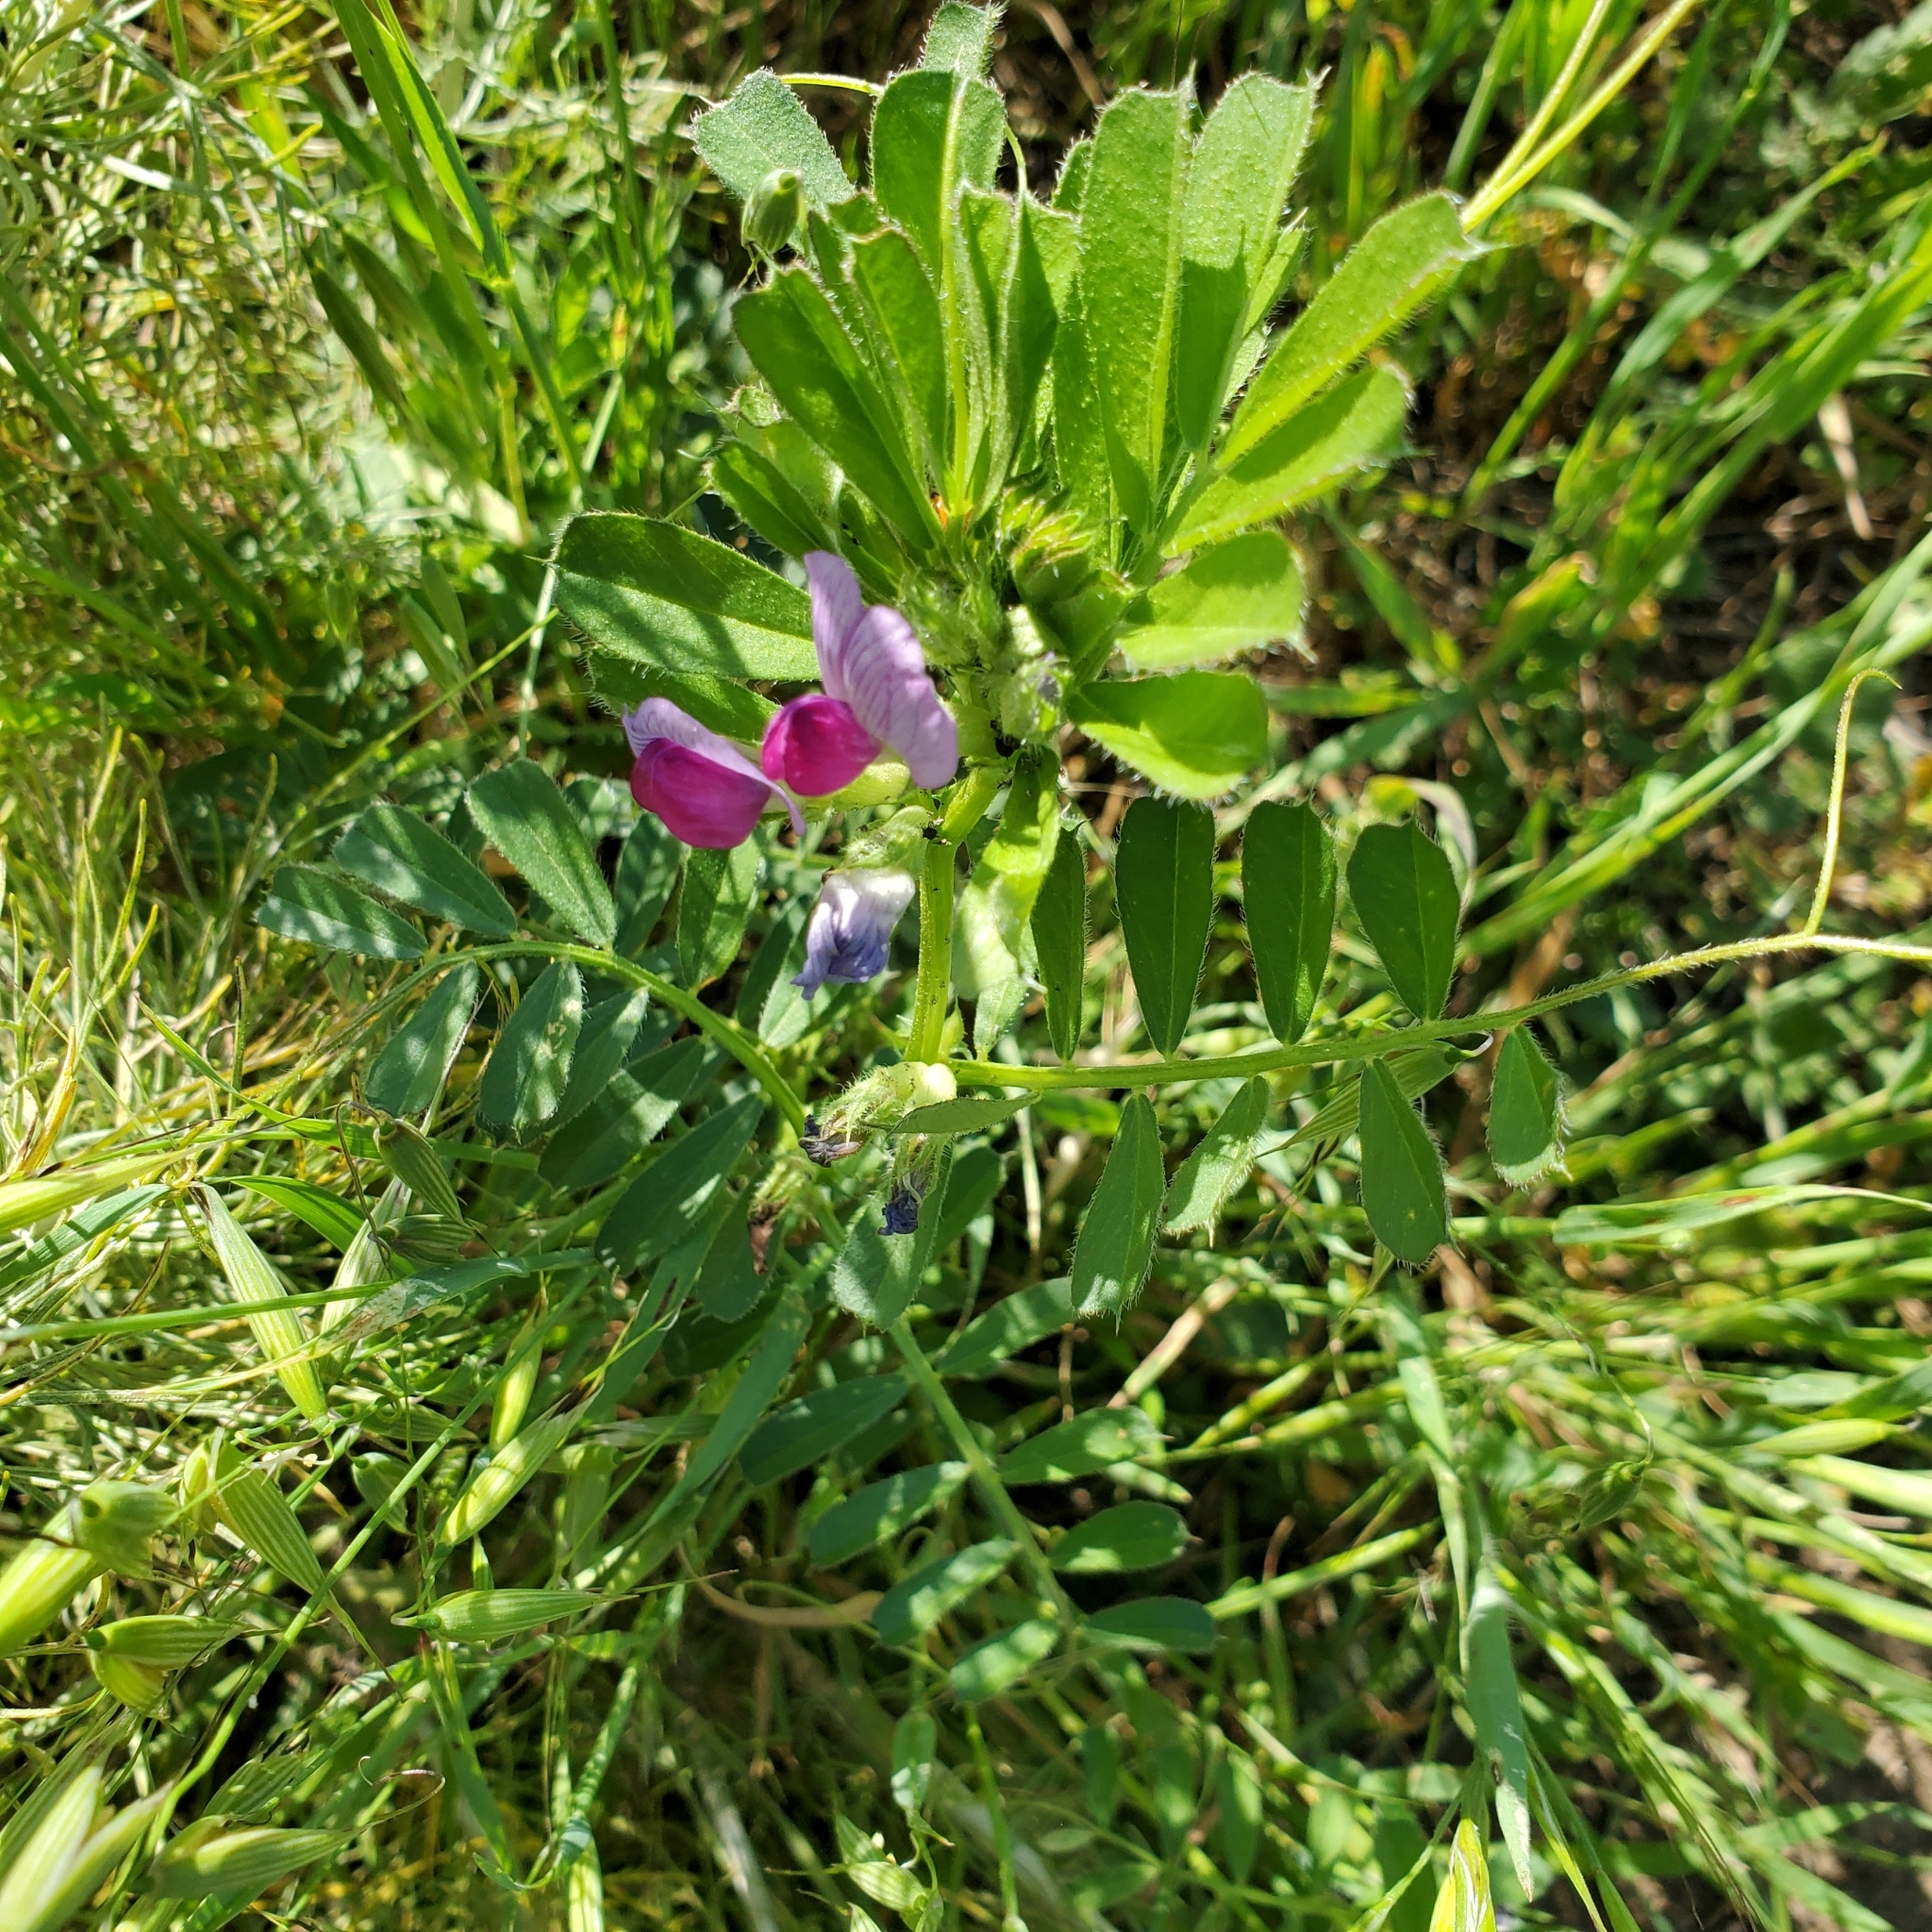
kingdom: Plantae
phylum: Tracheophyta
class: Magnoliopsida
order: Fabales
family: Fabaceae
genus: Vicia
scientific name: Vicia sativa
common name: Garden vetch
